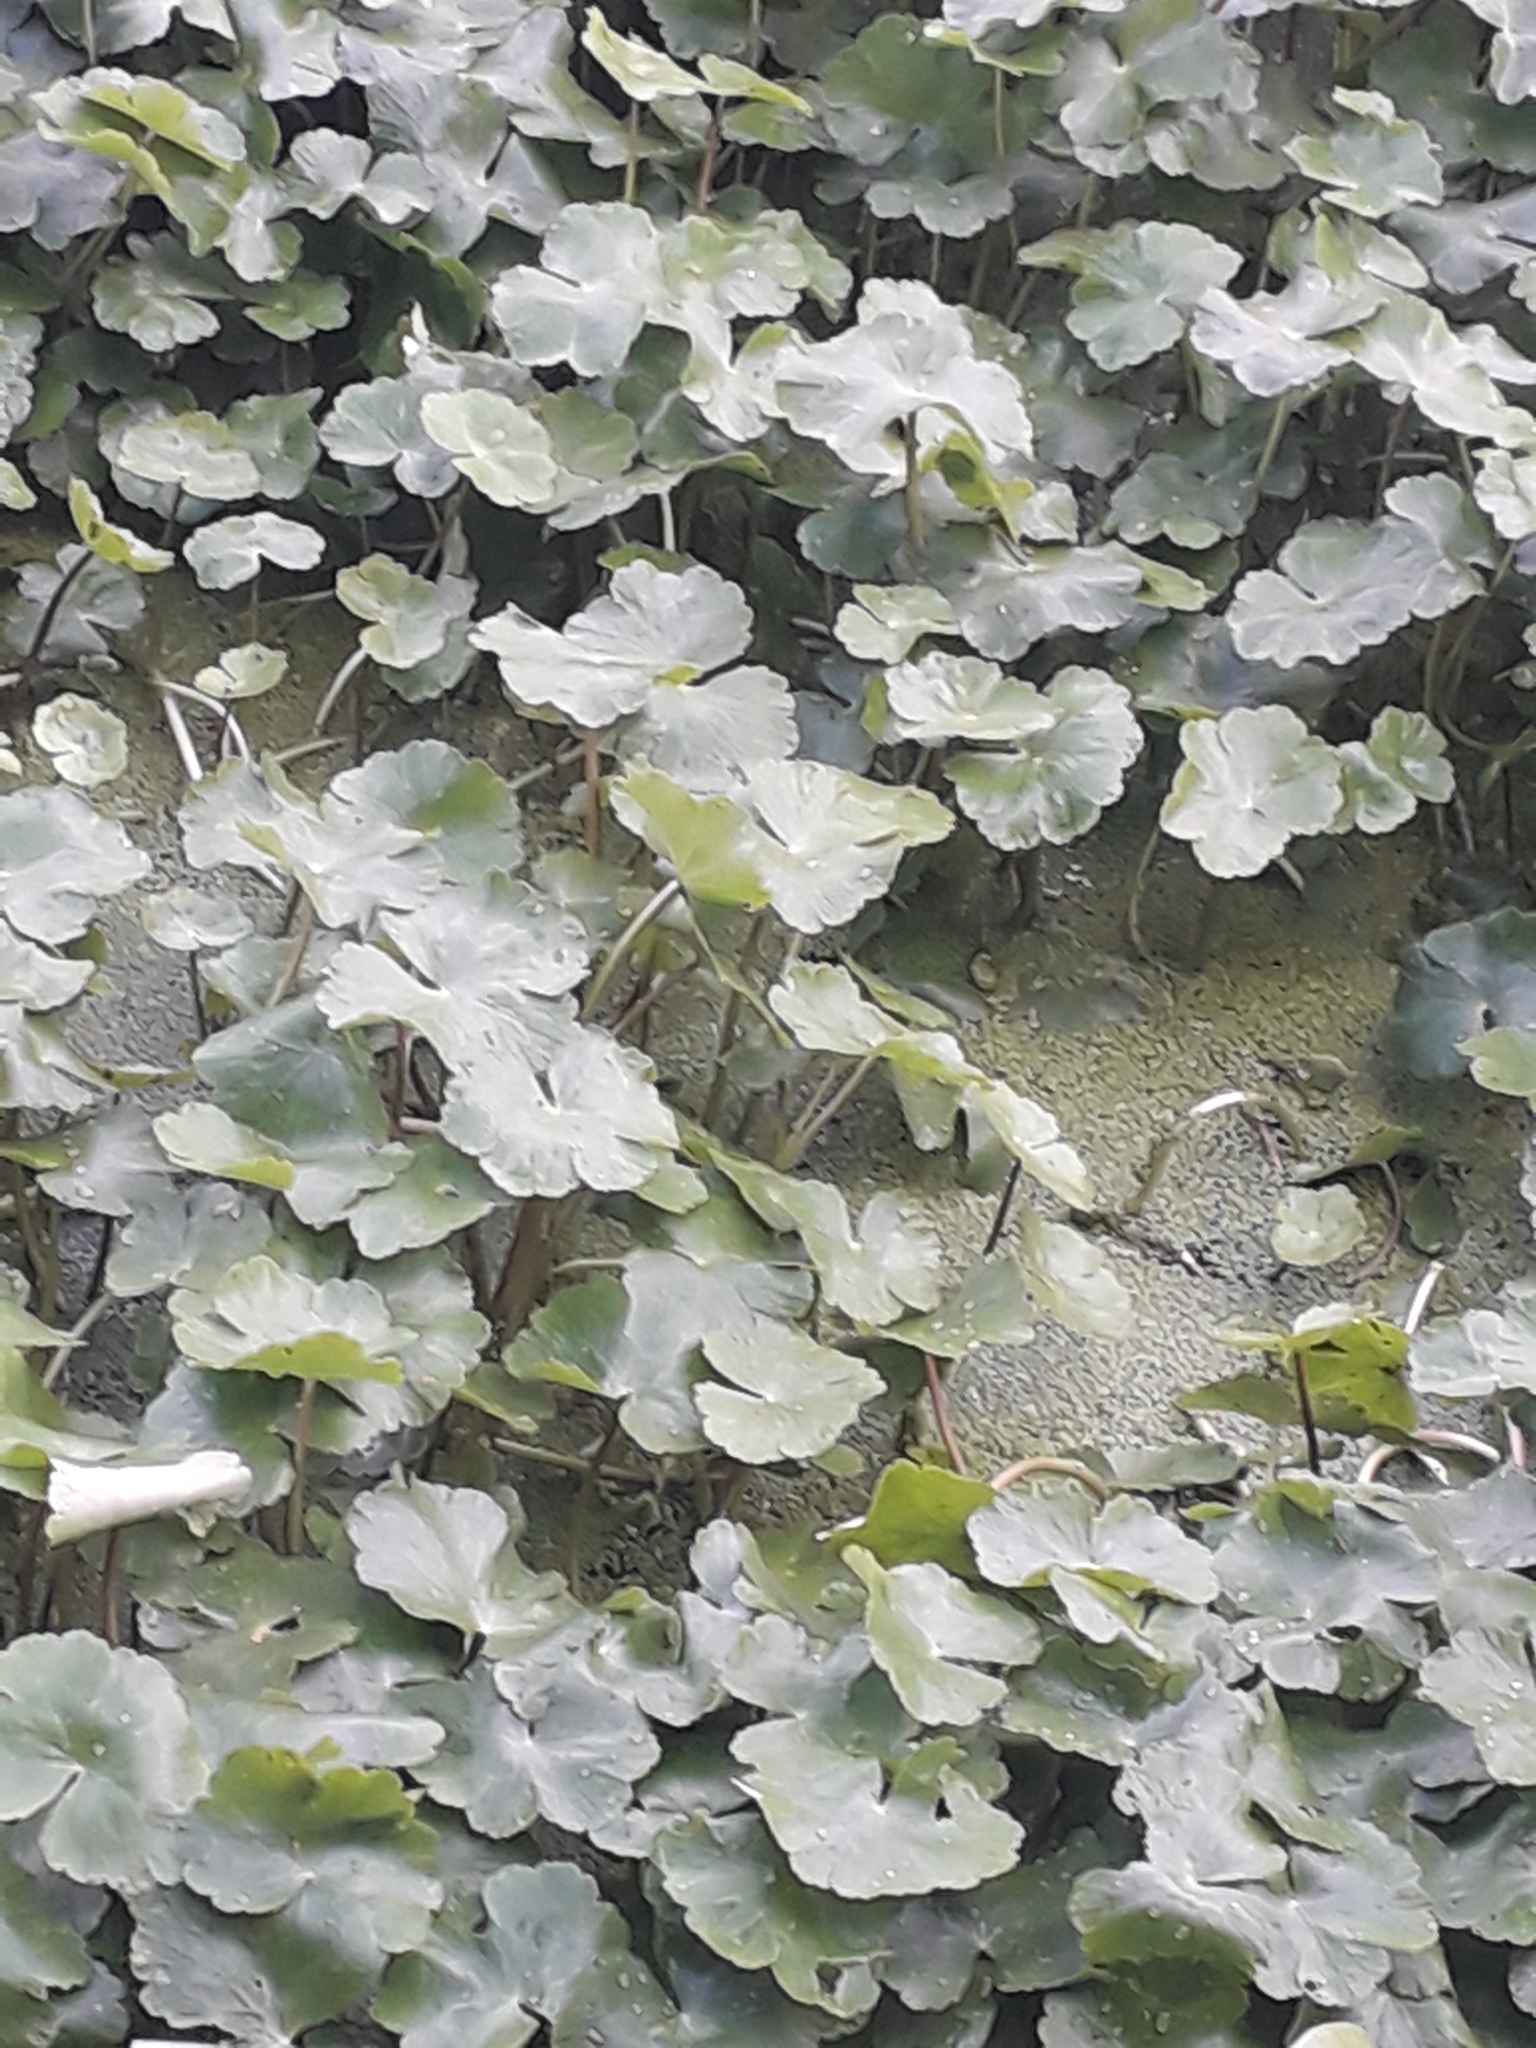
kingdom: Plantae
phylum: Tracheophyta
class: Magnoliopsida
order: Apiales
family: Araliaceae
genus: Hydrocotyle
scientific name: Hydrocotyle ranunculoides
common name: Floating pennywort
